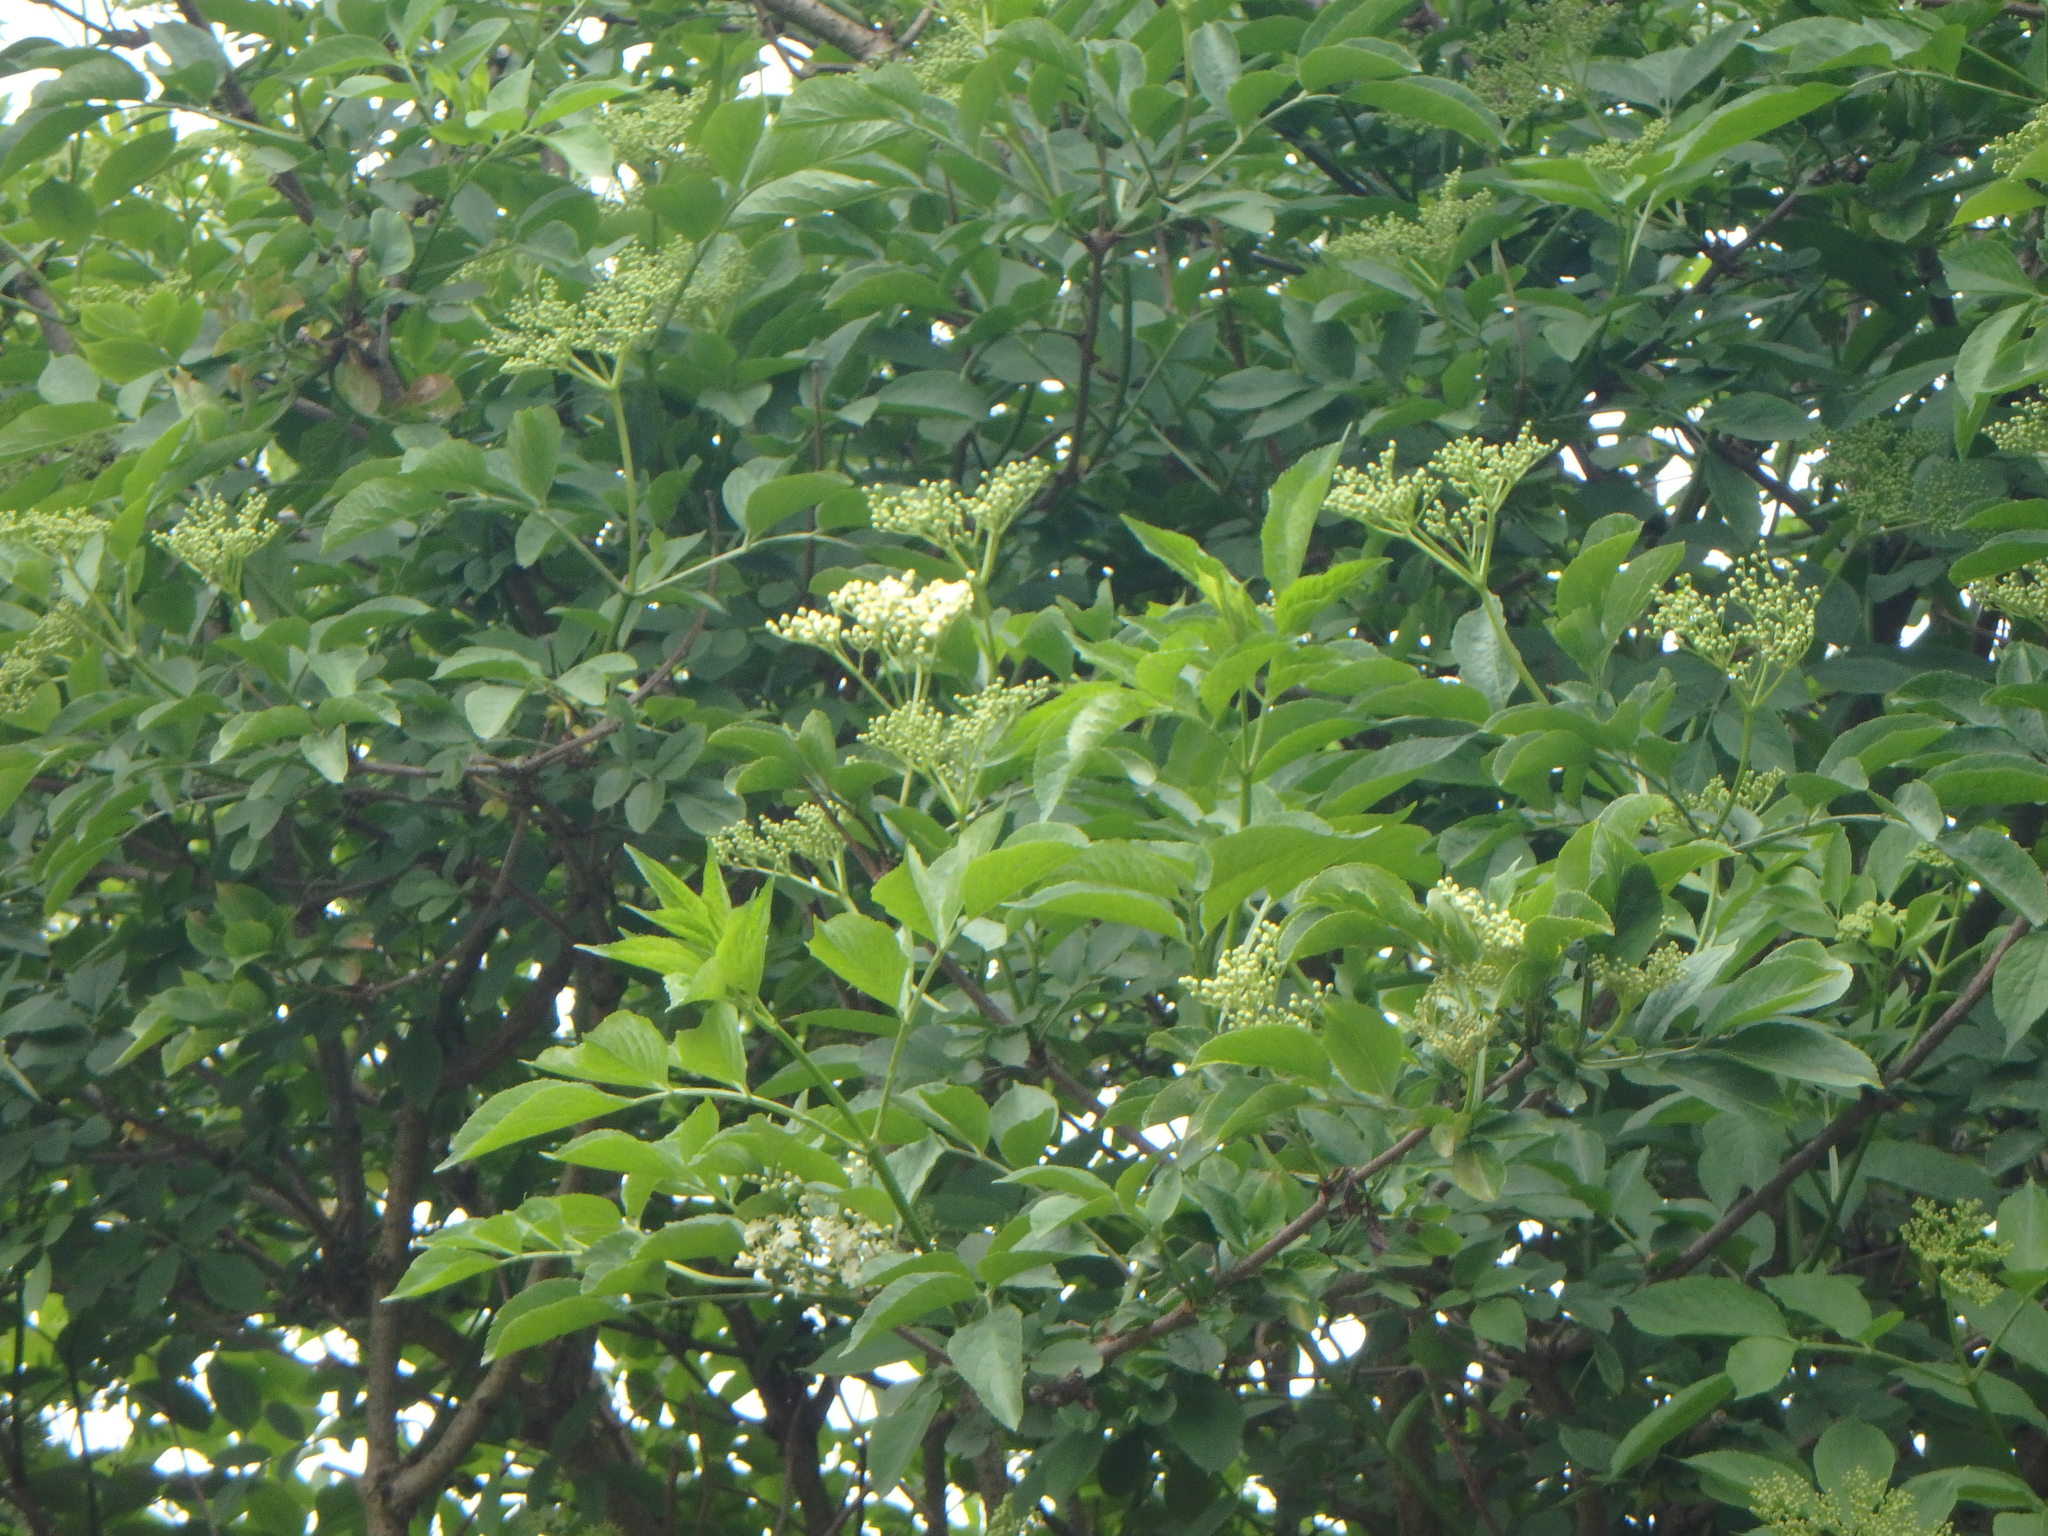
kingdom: Plantae
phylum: Tracheophyta
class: Magnoliopsida
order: Dipsacales
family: Viburnaceae
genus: Sambucus
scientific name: Sambucus nigra
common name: Elder
